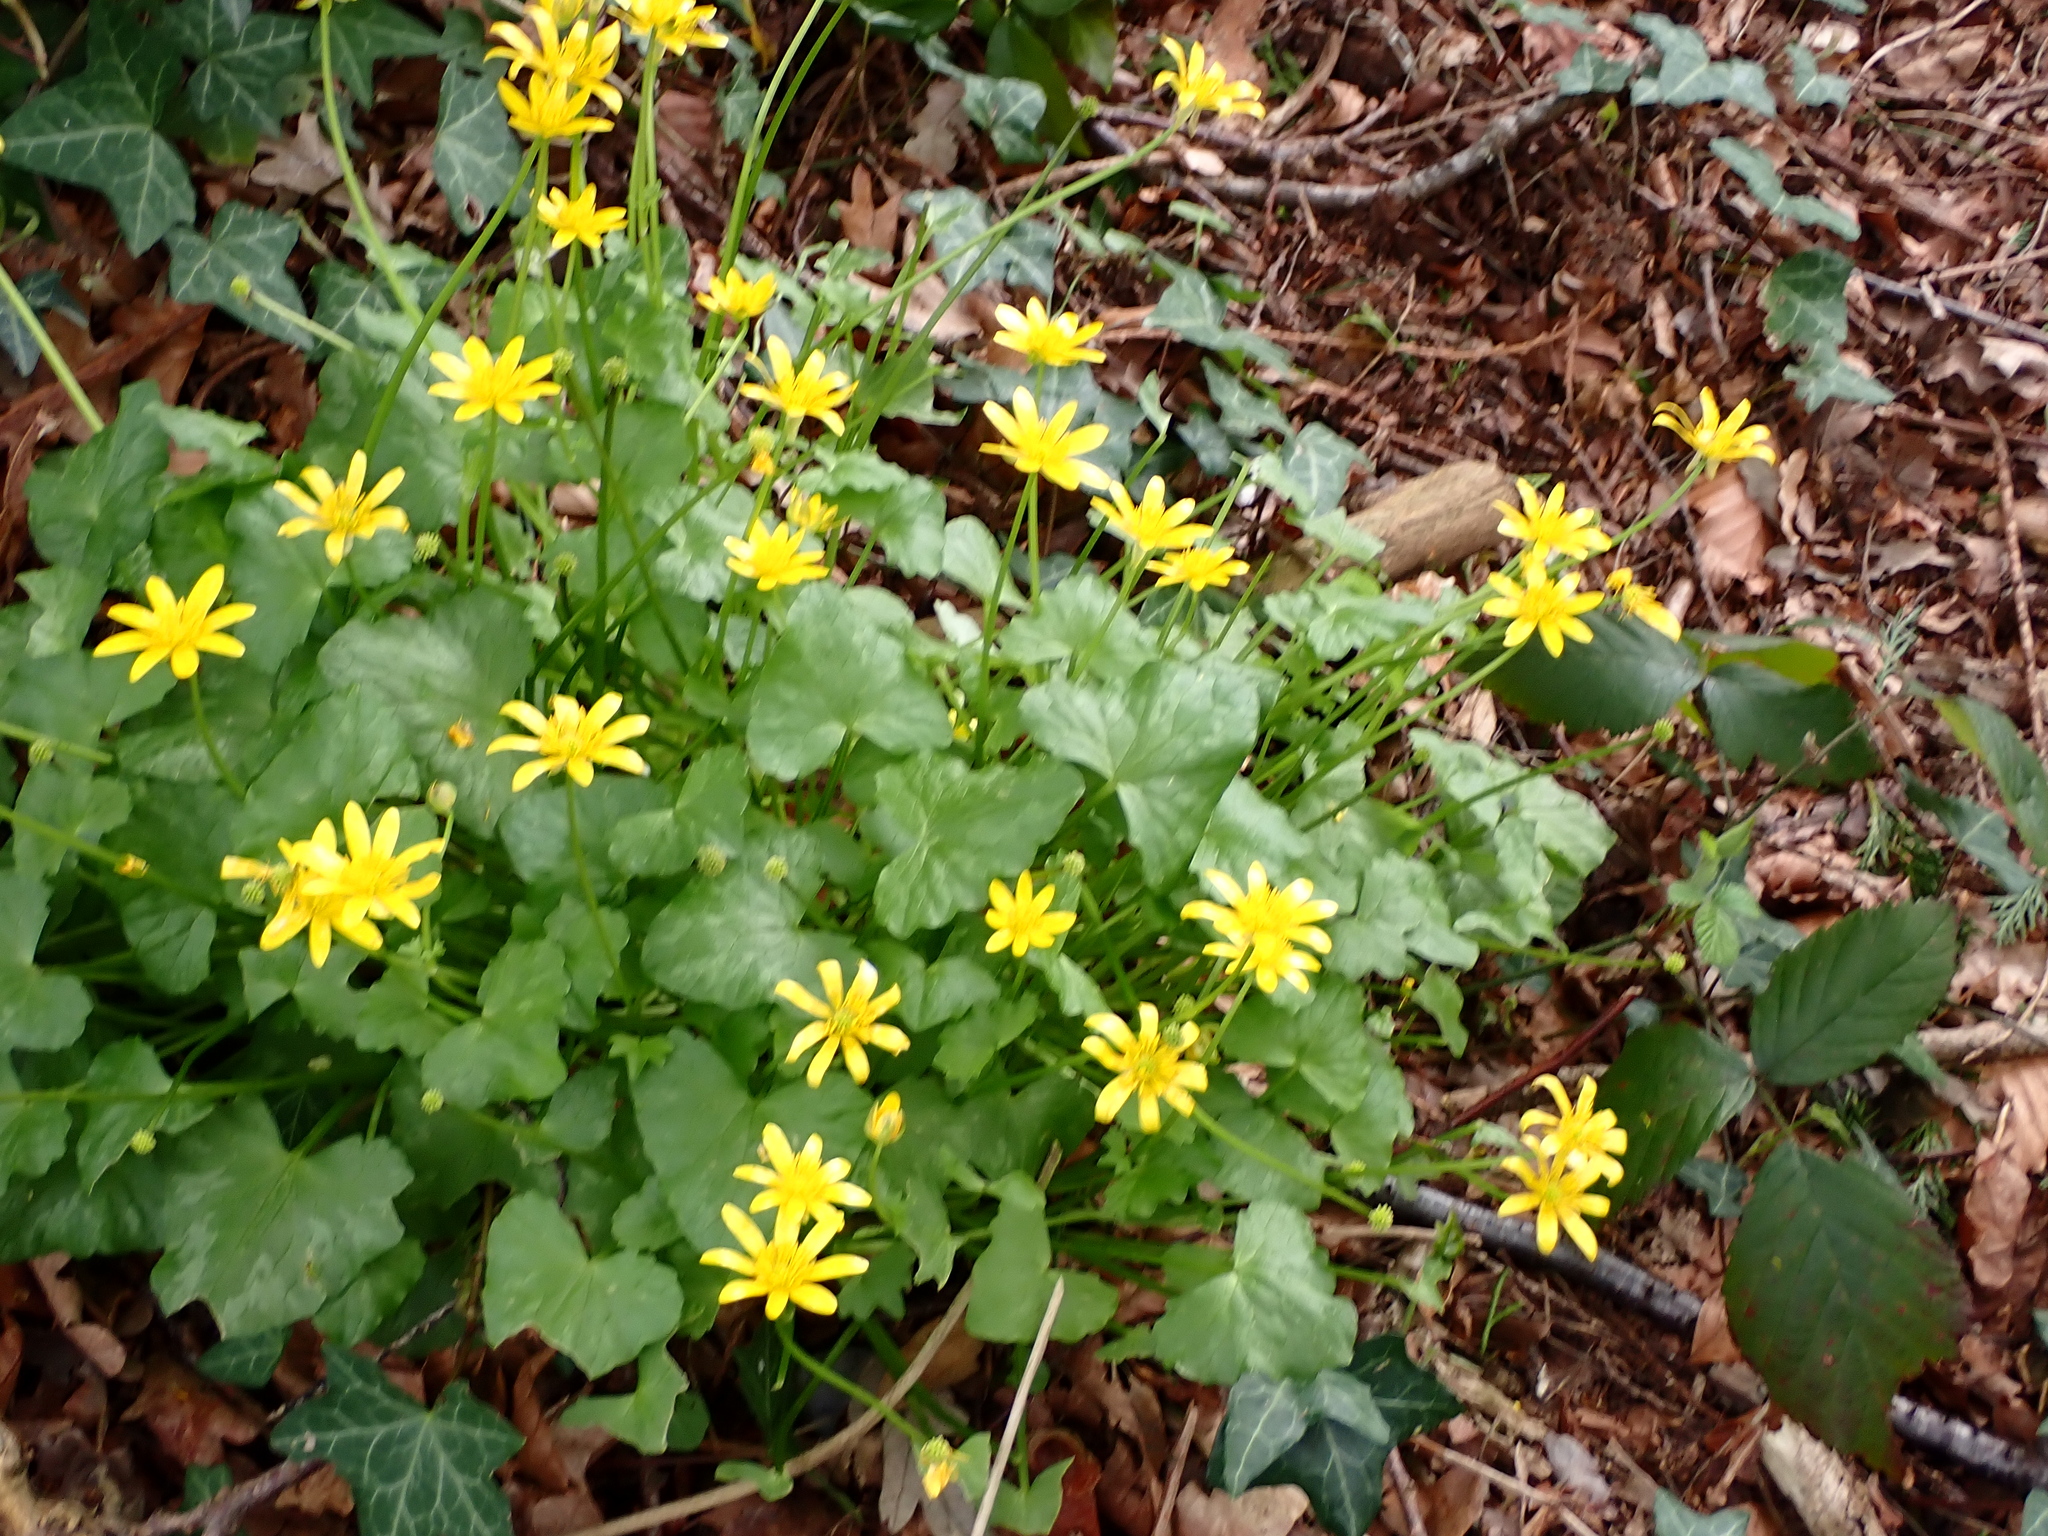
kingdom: Plantae
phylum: Tracheophyta
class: Magnoliopsida
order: Ranunculales
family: Ranunculaceae
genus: Ficaria
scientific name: Ficaria verna
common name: Lesser celandine
